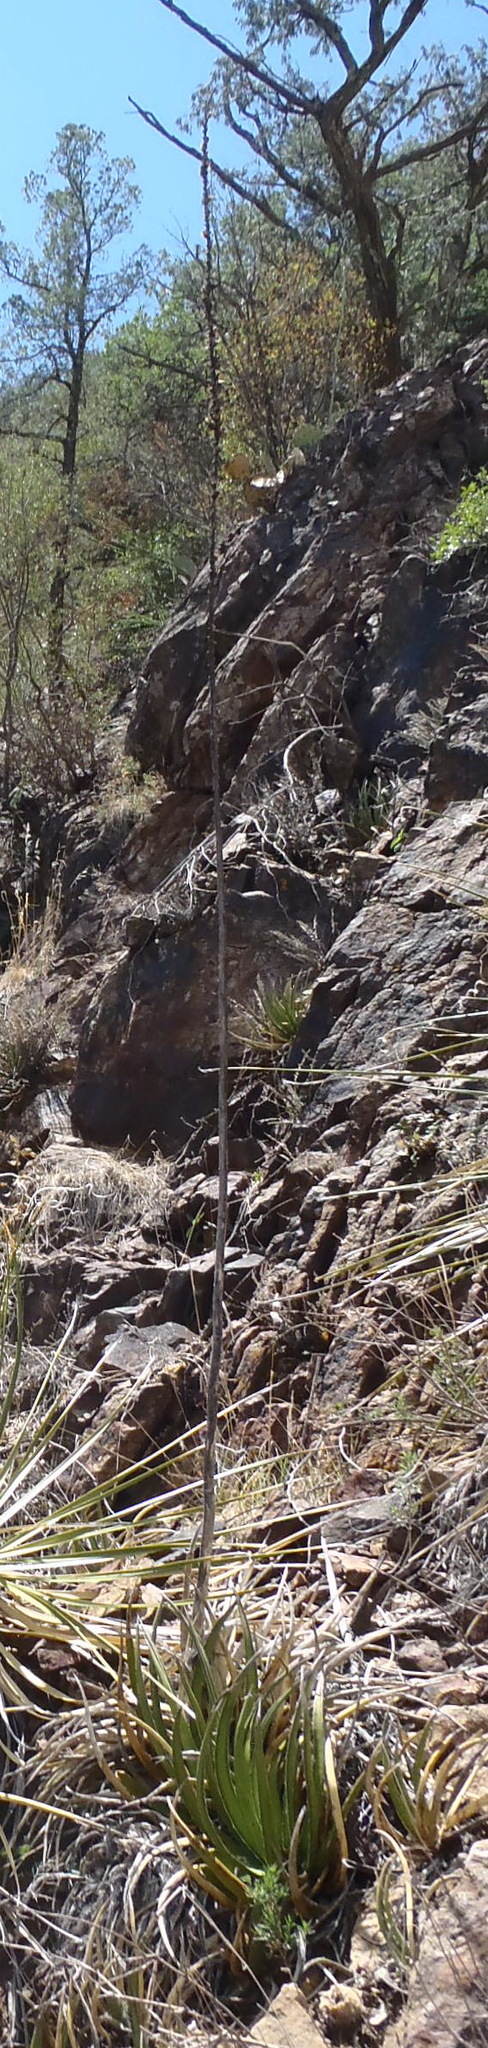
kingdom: Plantae
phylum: Tracheophyta
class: Liliopsida
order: Asparagales
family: Asparagaceae
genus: Agave
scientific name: Agave lechuguilla
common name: Lecheguilla agave
